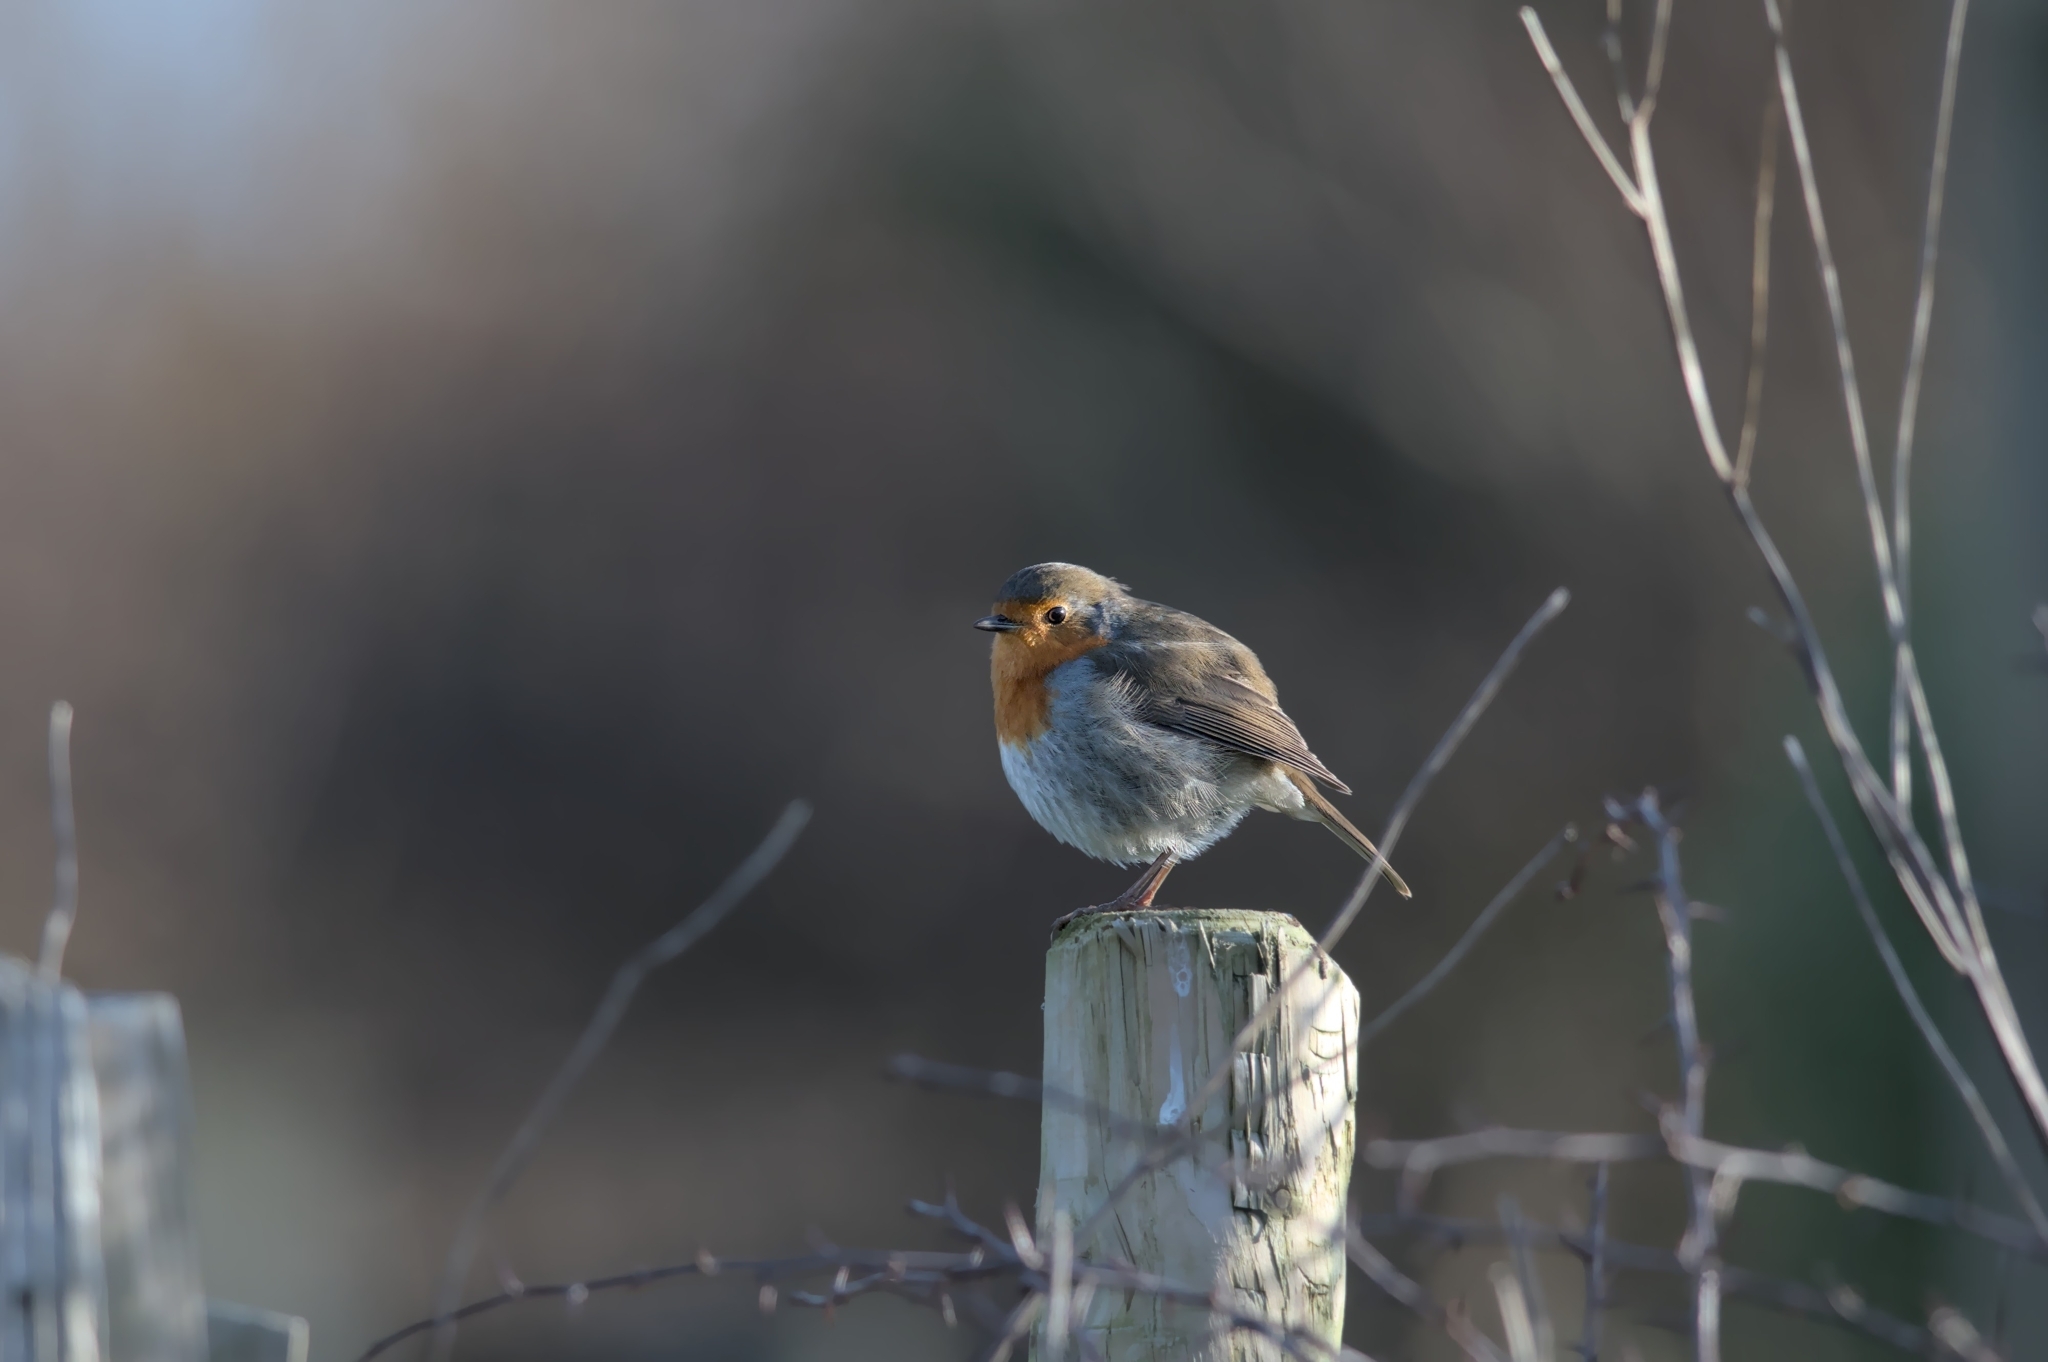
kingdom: Animalia
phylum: Chordata
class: Aves
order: Passeriformes
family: Muscicapidae
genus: Erithacus
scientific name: Erithacus rubecula
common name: European robin
